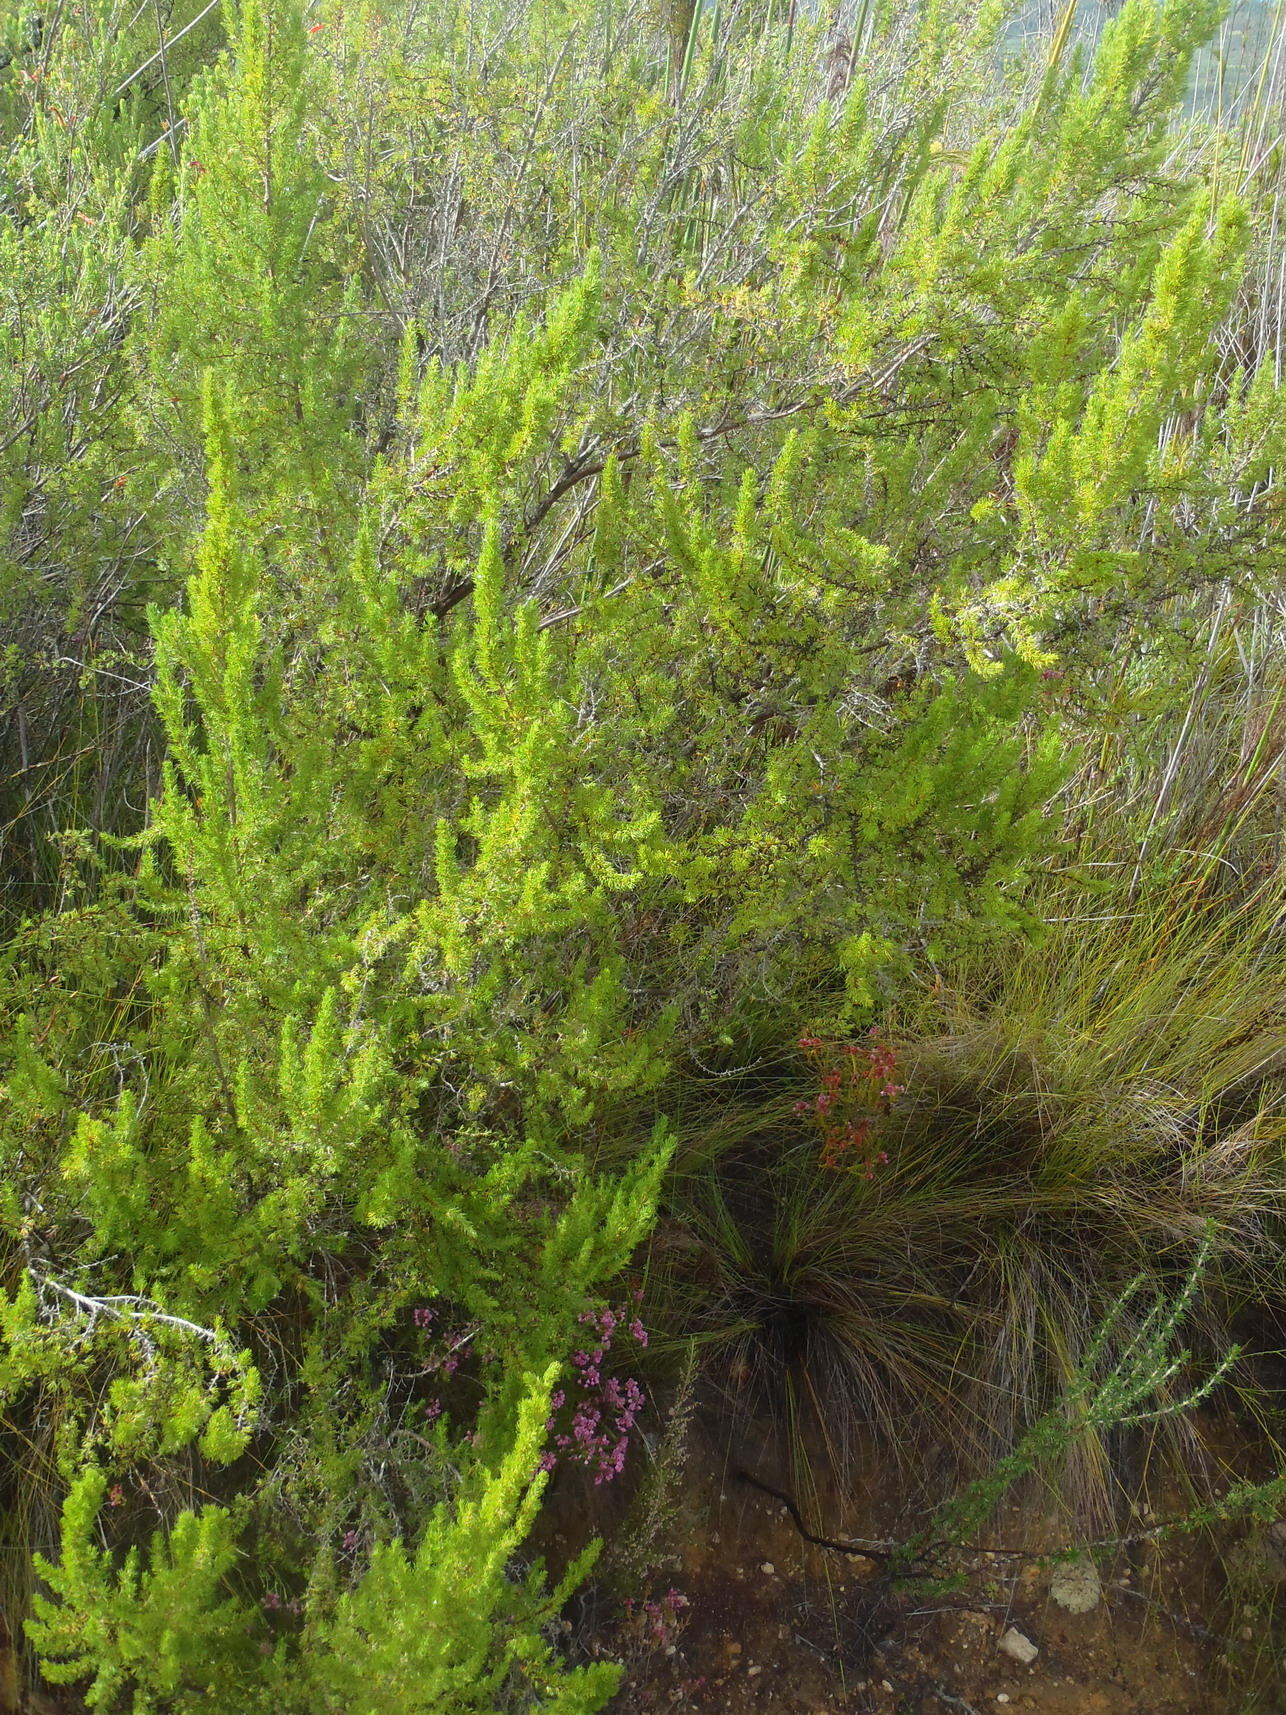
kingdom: Plantae
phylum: Tracheophyta
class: Magnoliopsida
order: Rosales
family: Rosaceae
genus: Cliffortia
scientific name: Cliffortia paucistaminea
